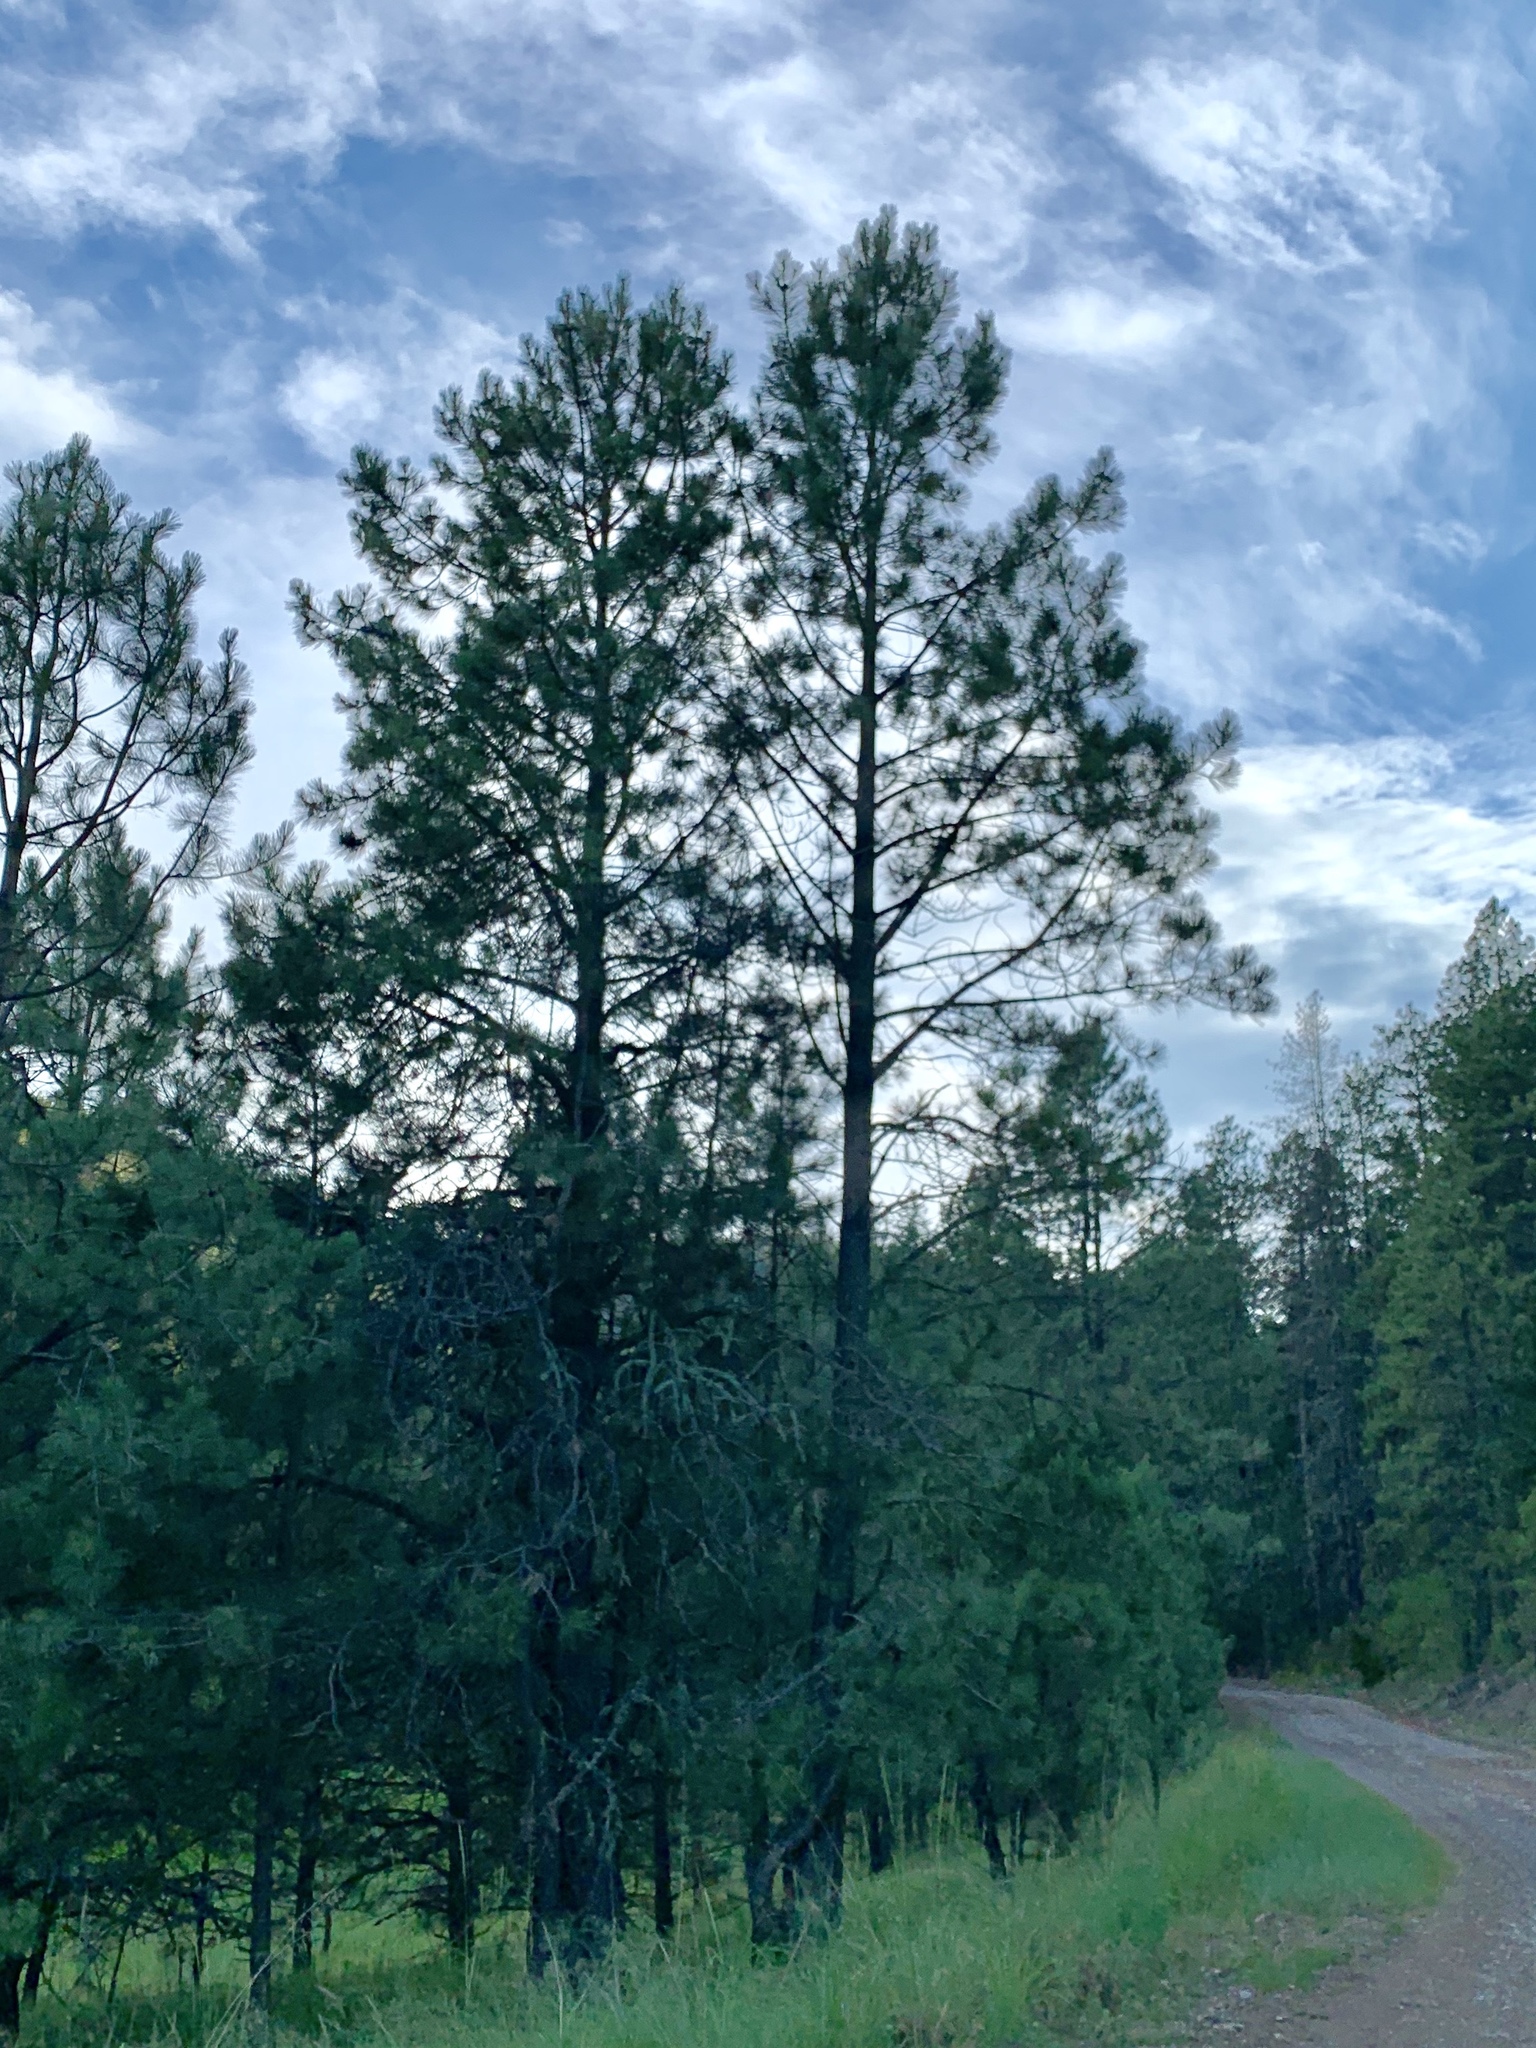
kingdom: Plantae
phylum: Tracheophyta
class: Pinopsida
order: Pinales
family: Pinaceae
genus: Pinus
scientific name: Pinus ponderosa
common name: Western yellow-pine
